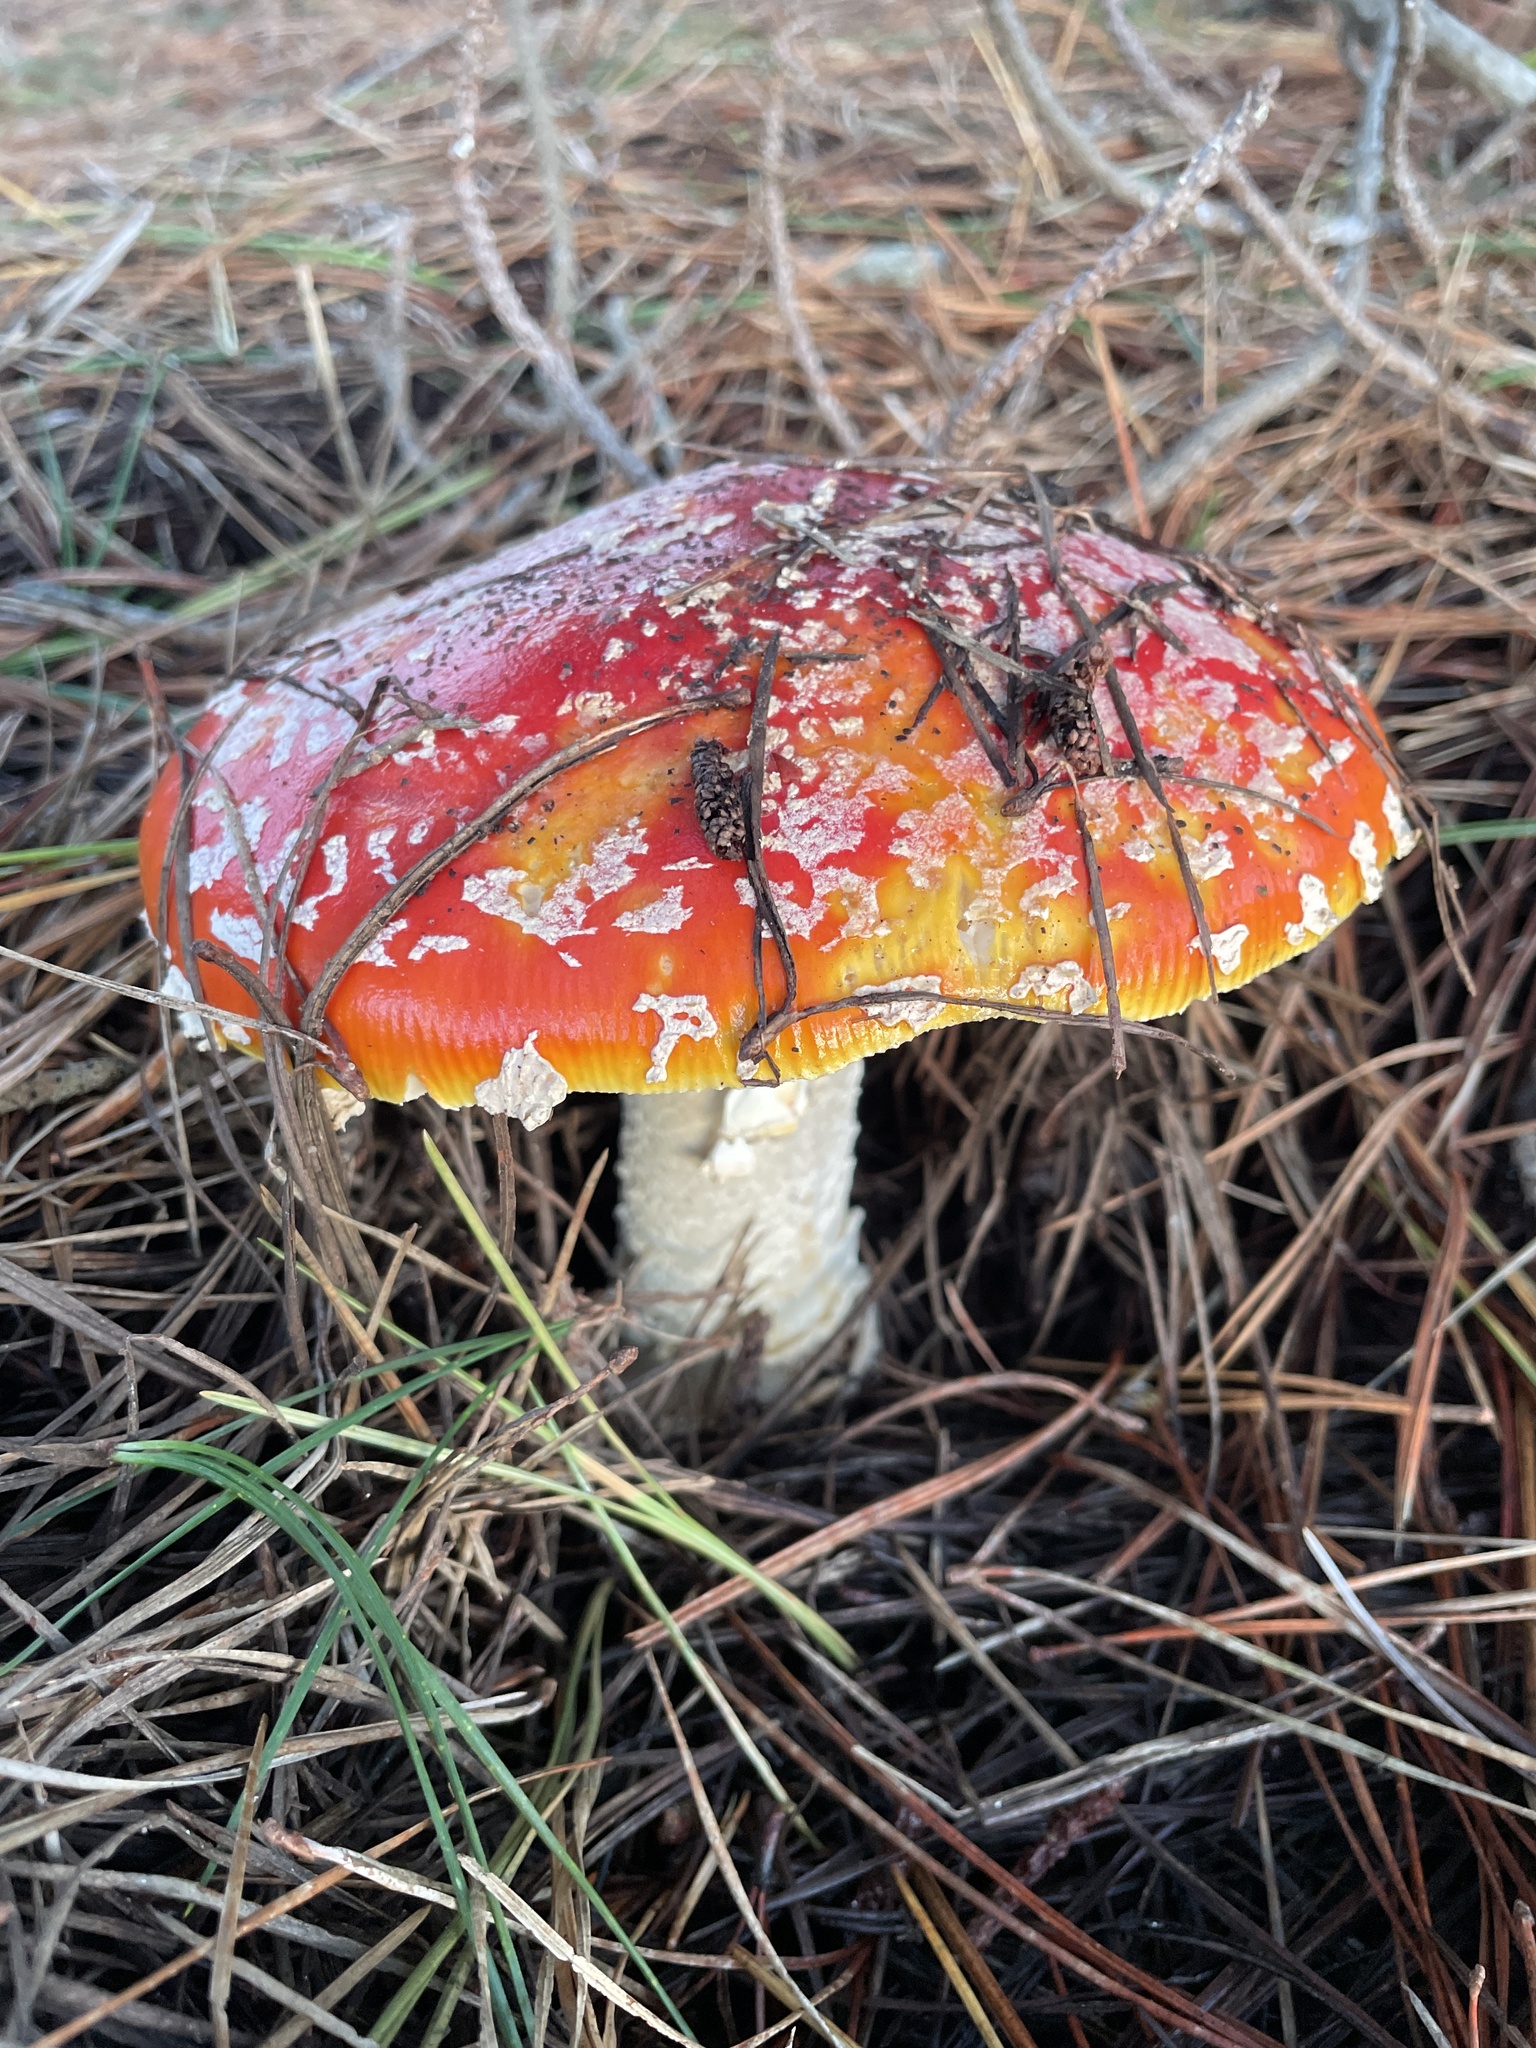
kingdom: Fungi
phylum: Basidiomycota
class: Agaricomycetes
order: Agaricales
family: Amanitaceae
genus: Amanita
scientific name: Amanita muscaria
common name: Fly agaric
